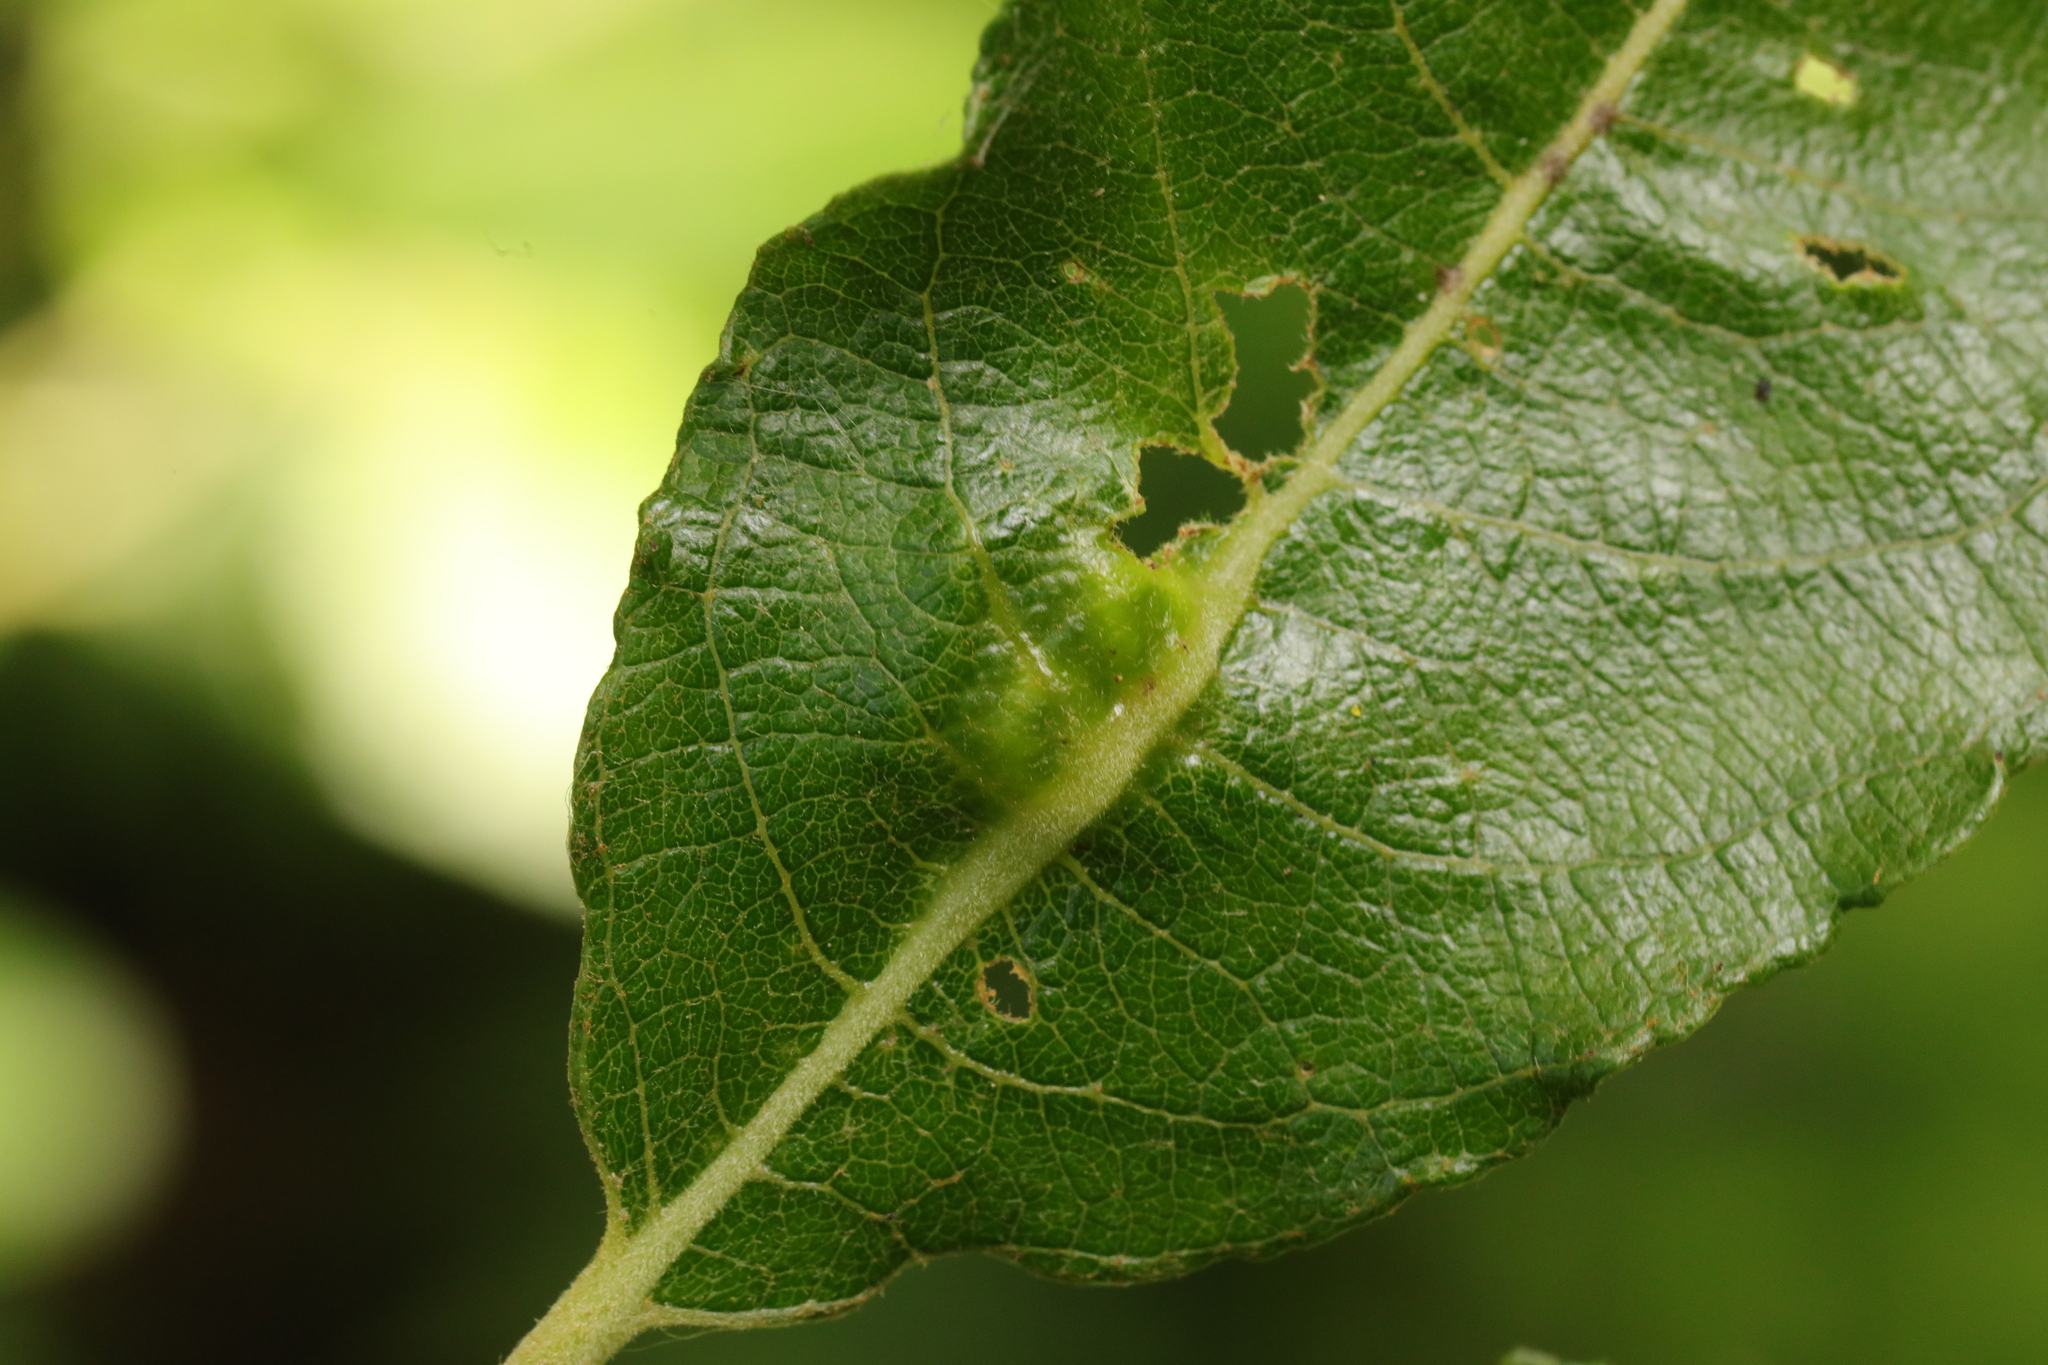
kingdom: Animalia
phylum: Arthropoda
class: Insecta
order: Diptera
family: Cecidomyiidae
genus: Iteomyia
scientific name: Iteomyia major
